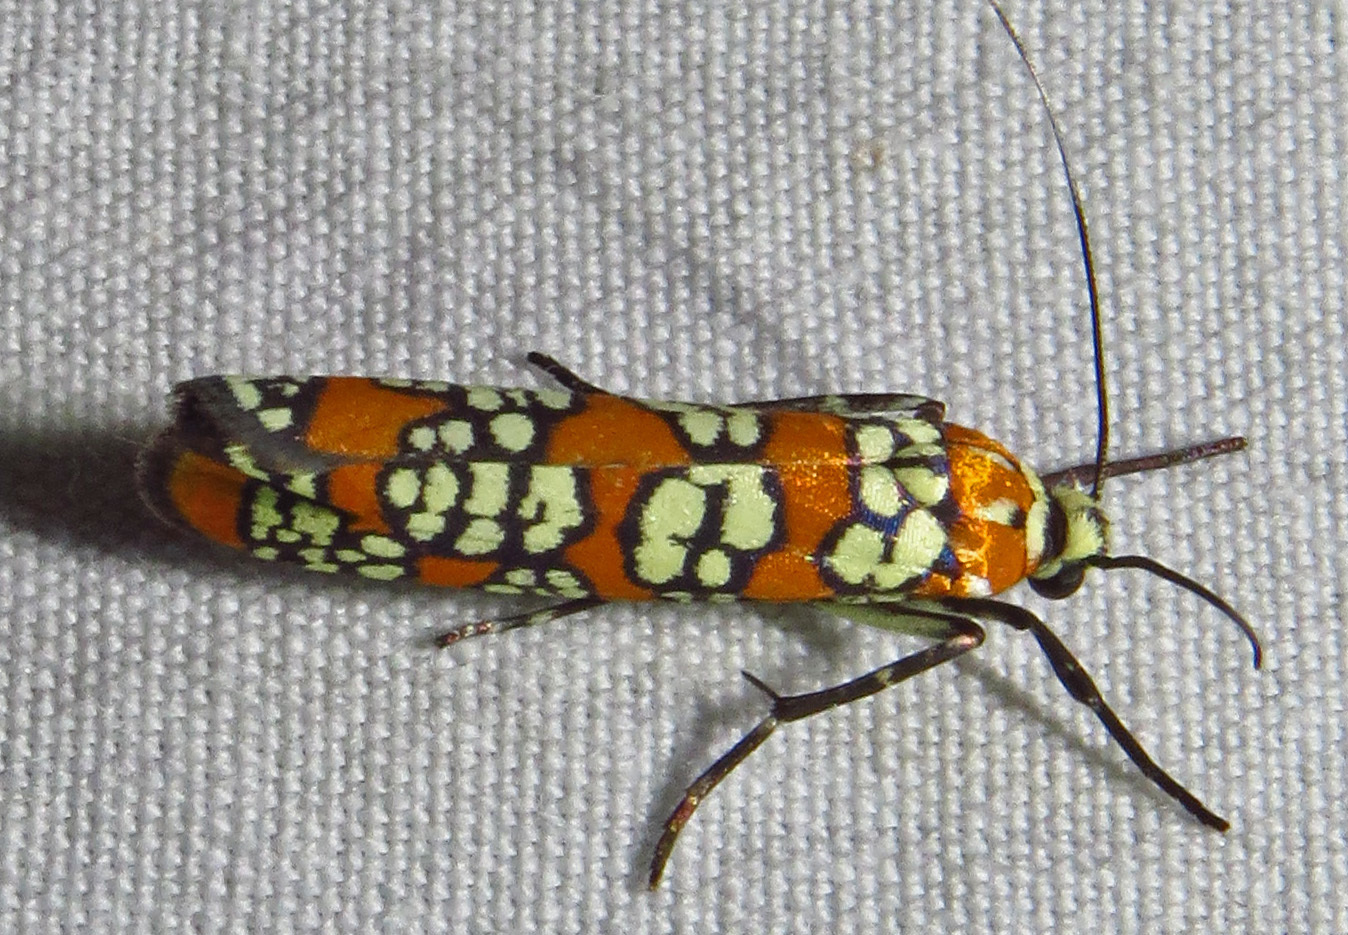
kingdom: Animalia
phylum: Arthropoda
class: Insecta
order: Lepidoptera
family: Attevidae
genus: Atteva
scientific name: Atteva punctella
